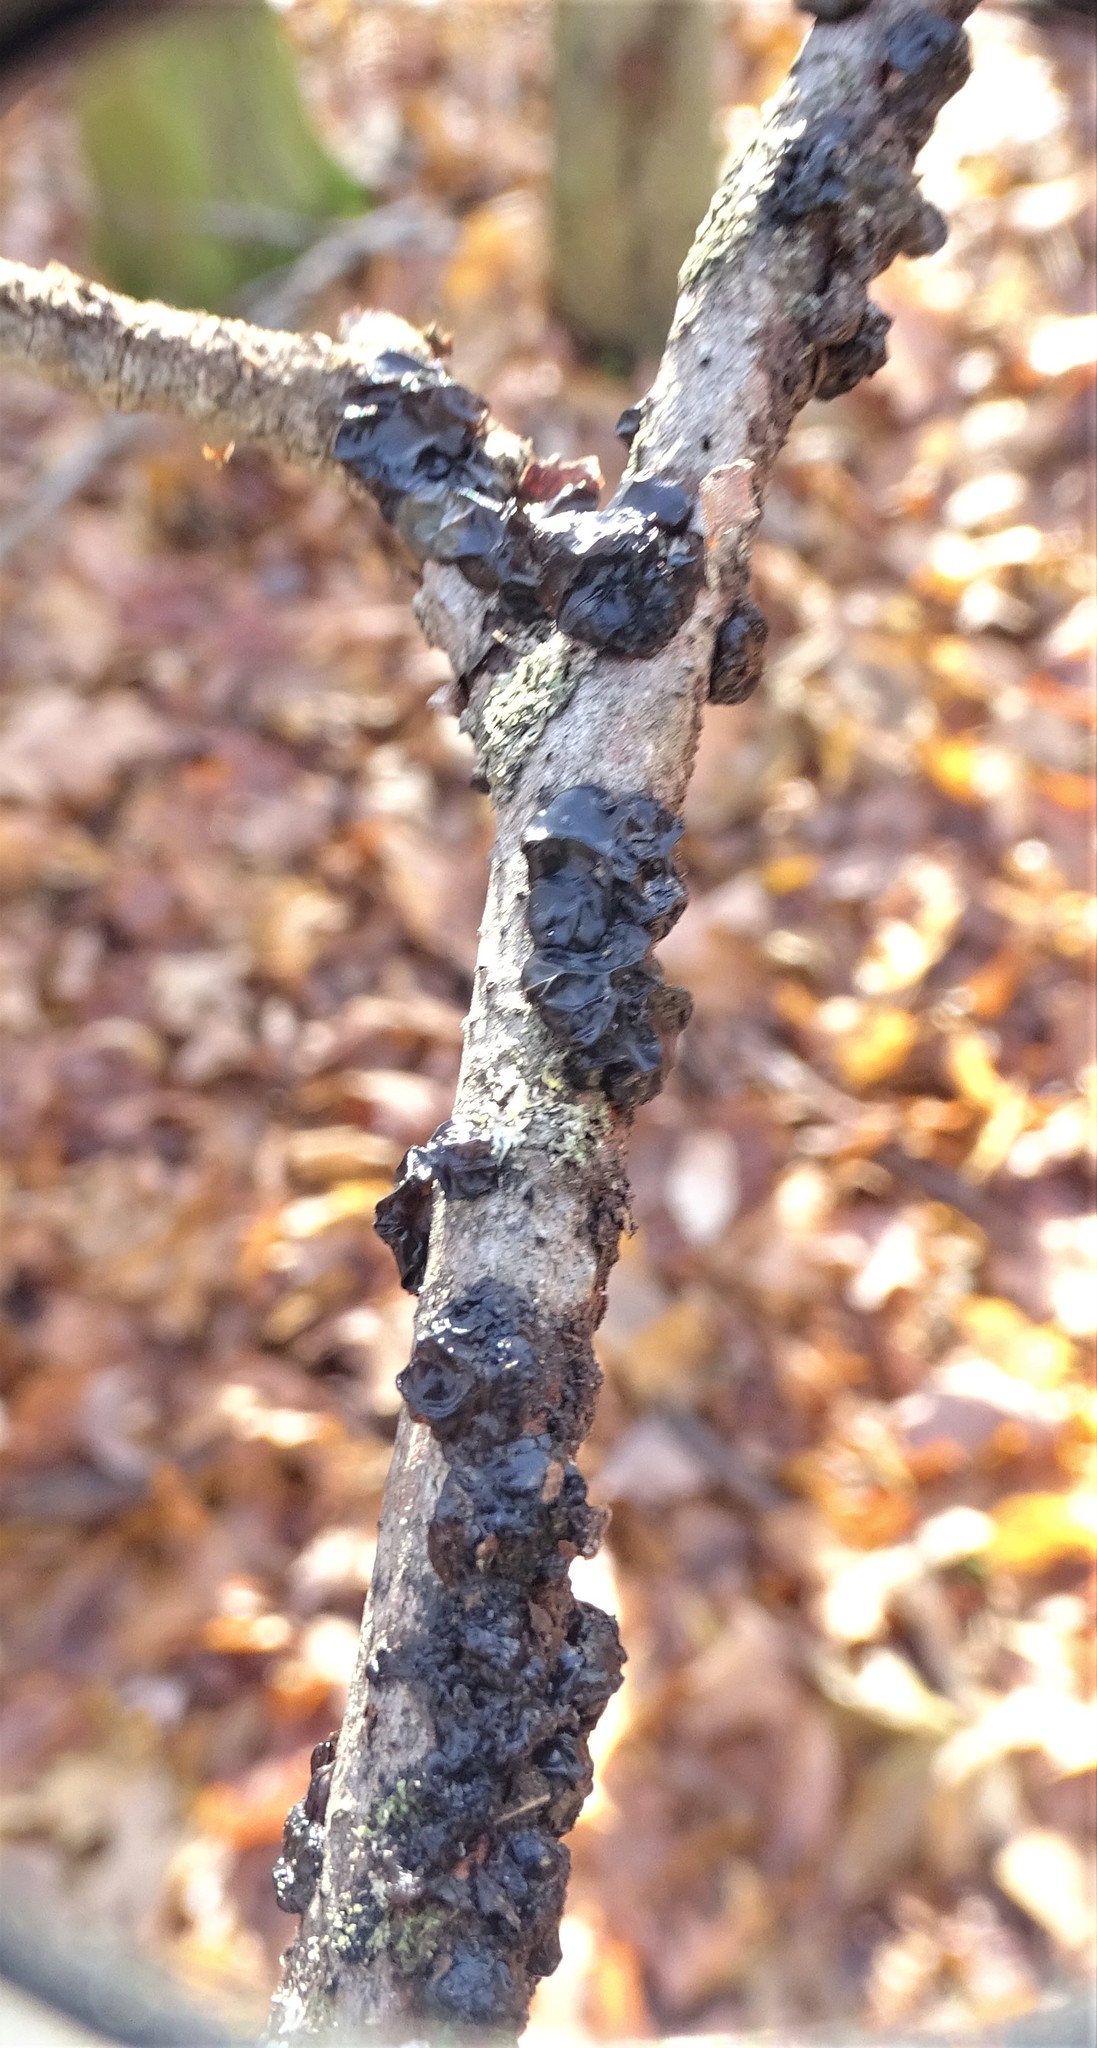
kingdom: Fungi
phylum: Basidiomycota
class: Agaricomycetes
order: Auriculariales
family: Auriculariaceae
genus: Exidia
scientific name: Exidia glandulosa
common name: Witches' butter
